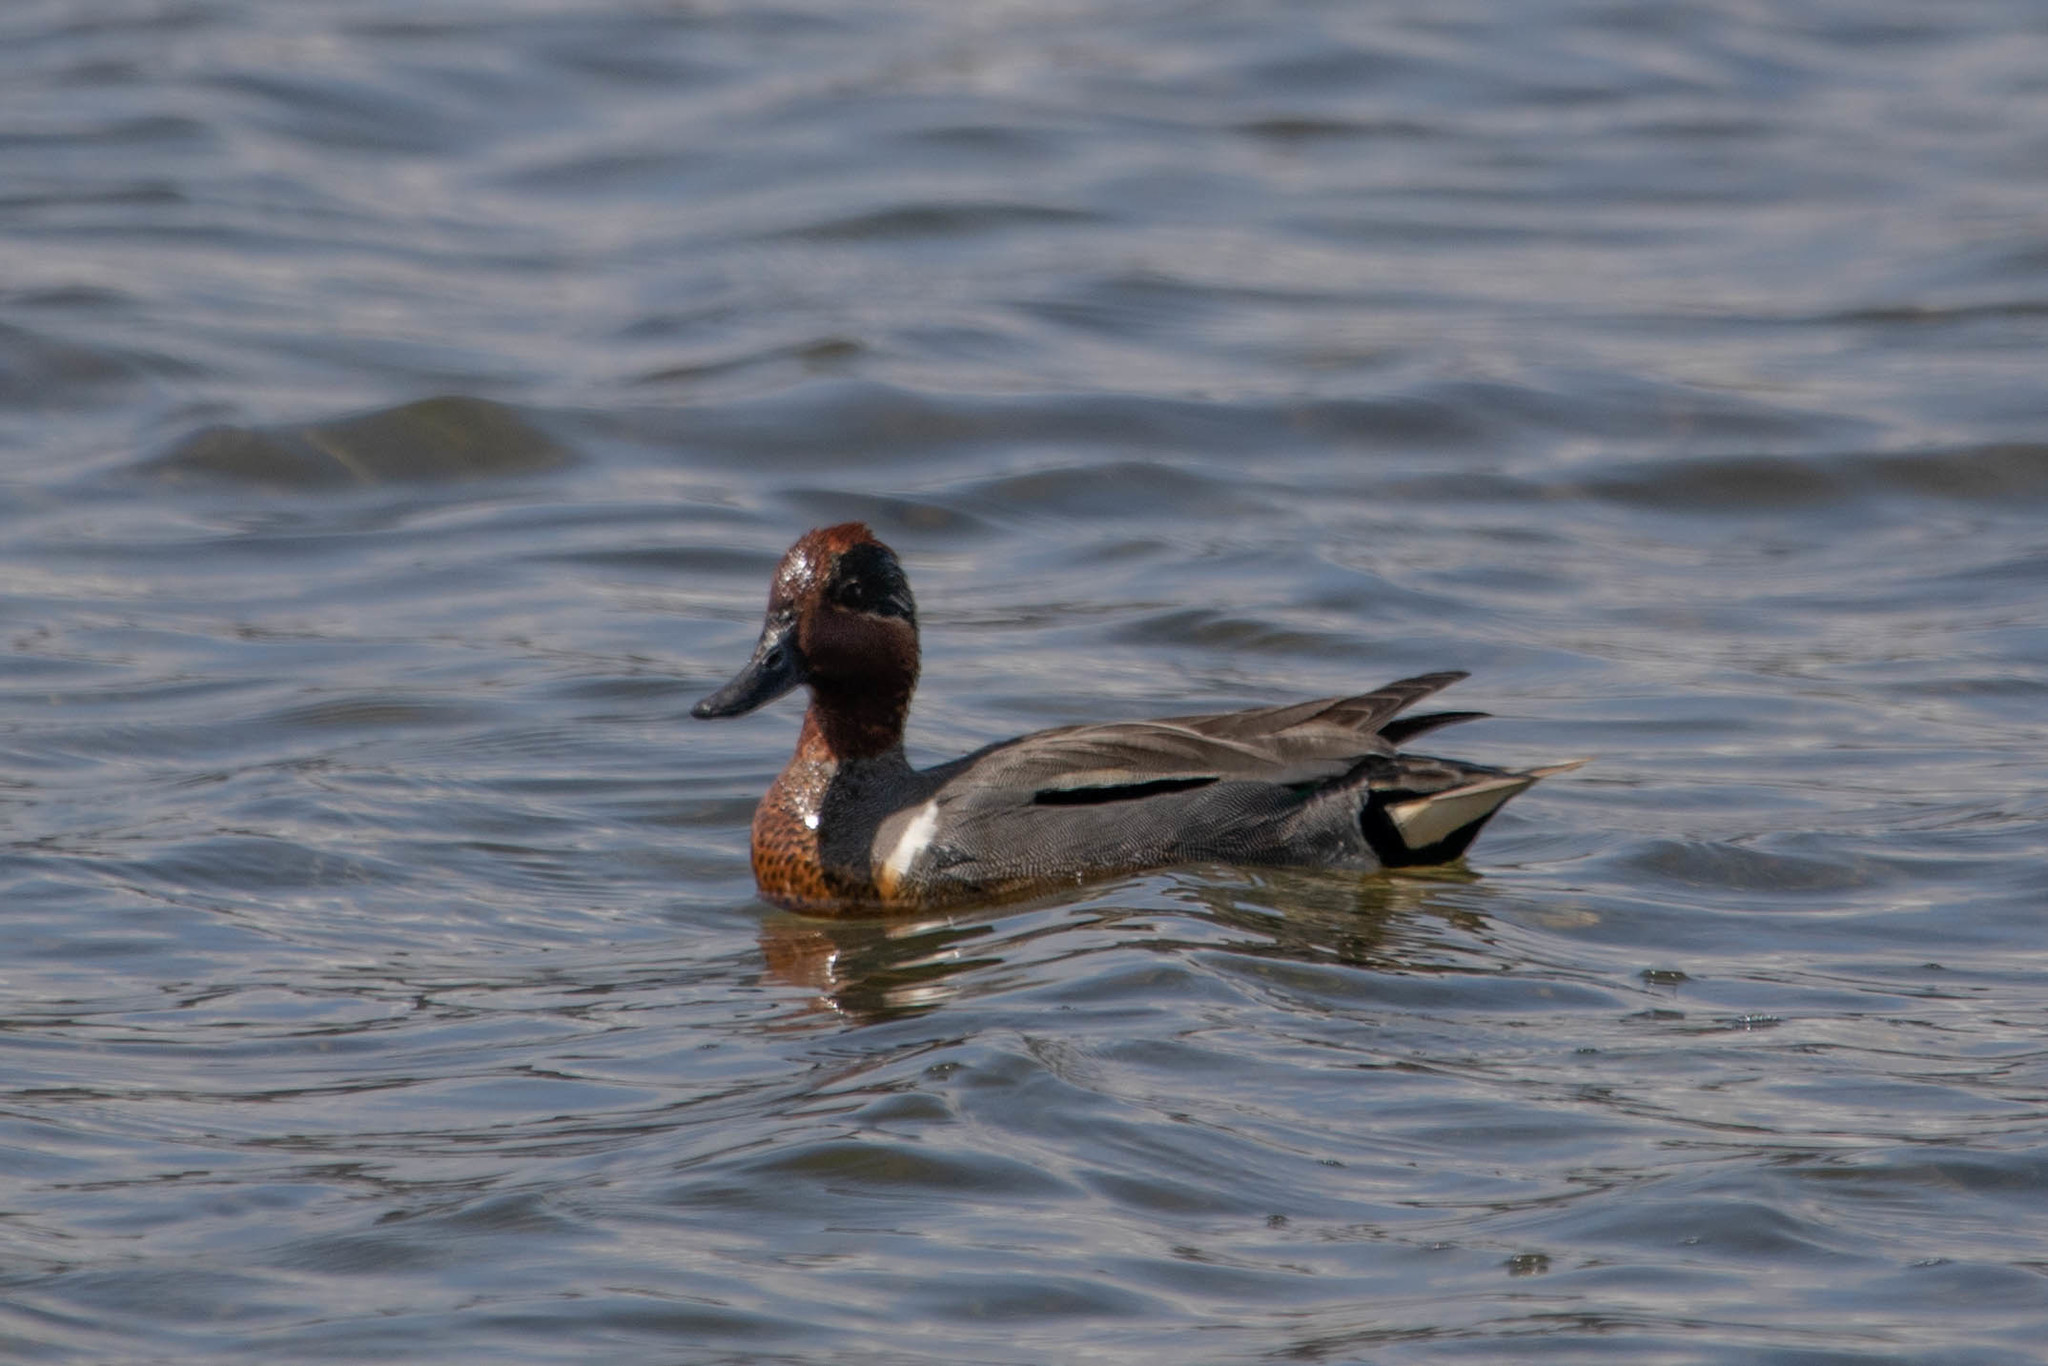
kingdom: Animalia
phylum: Chordata
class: Aves
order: Anseriformes
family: Anatidae
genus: Anas
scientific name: Anas carolinensis
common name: Green-winged teal
